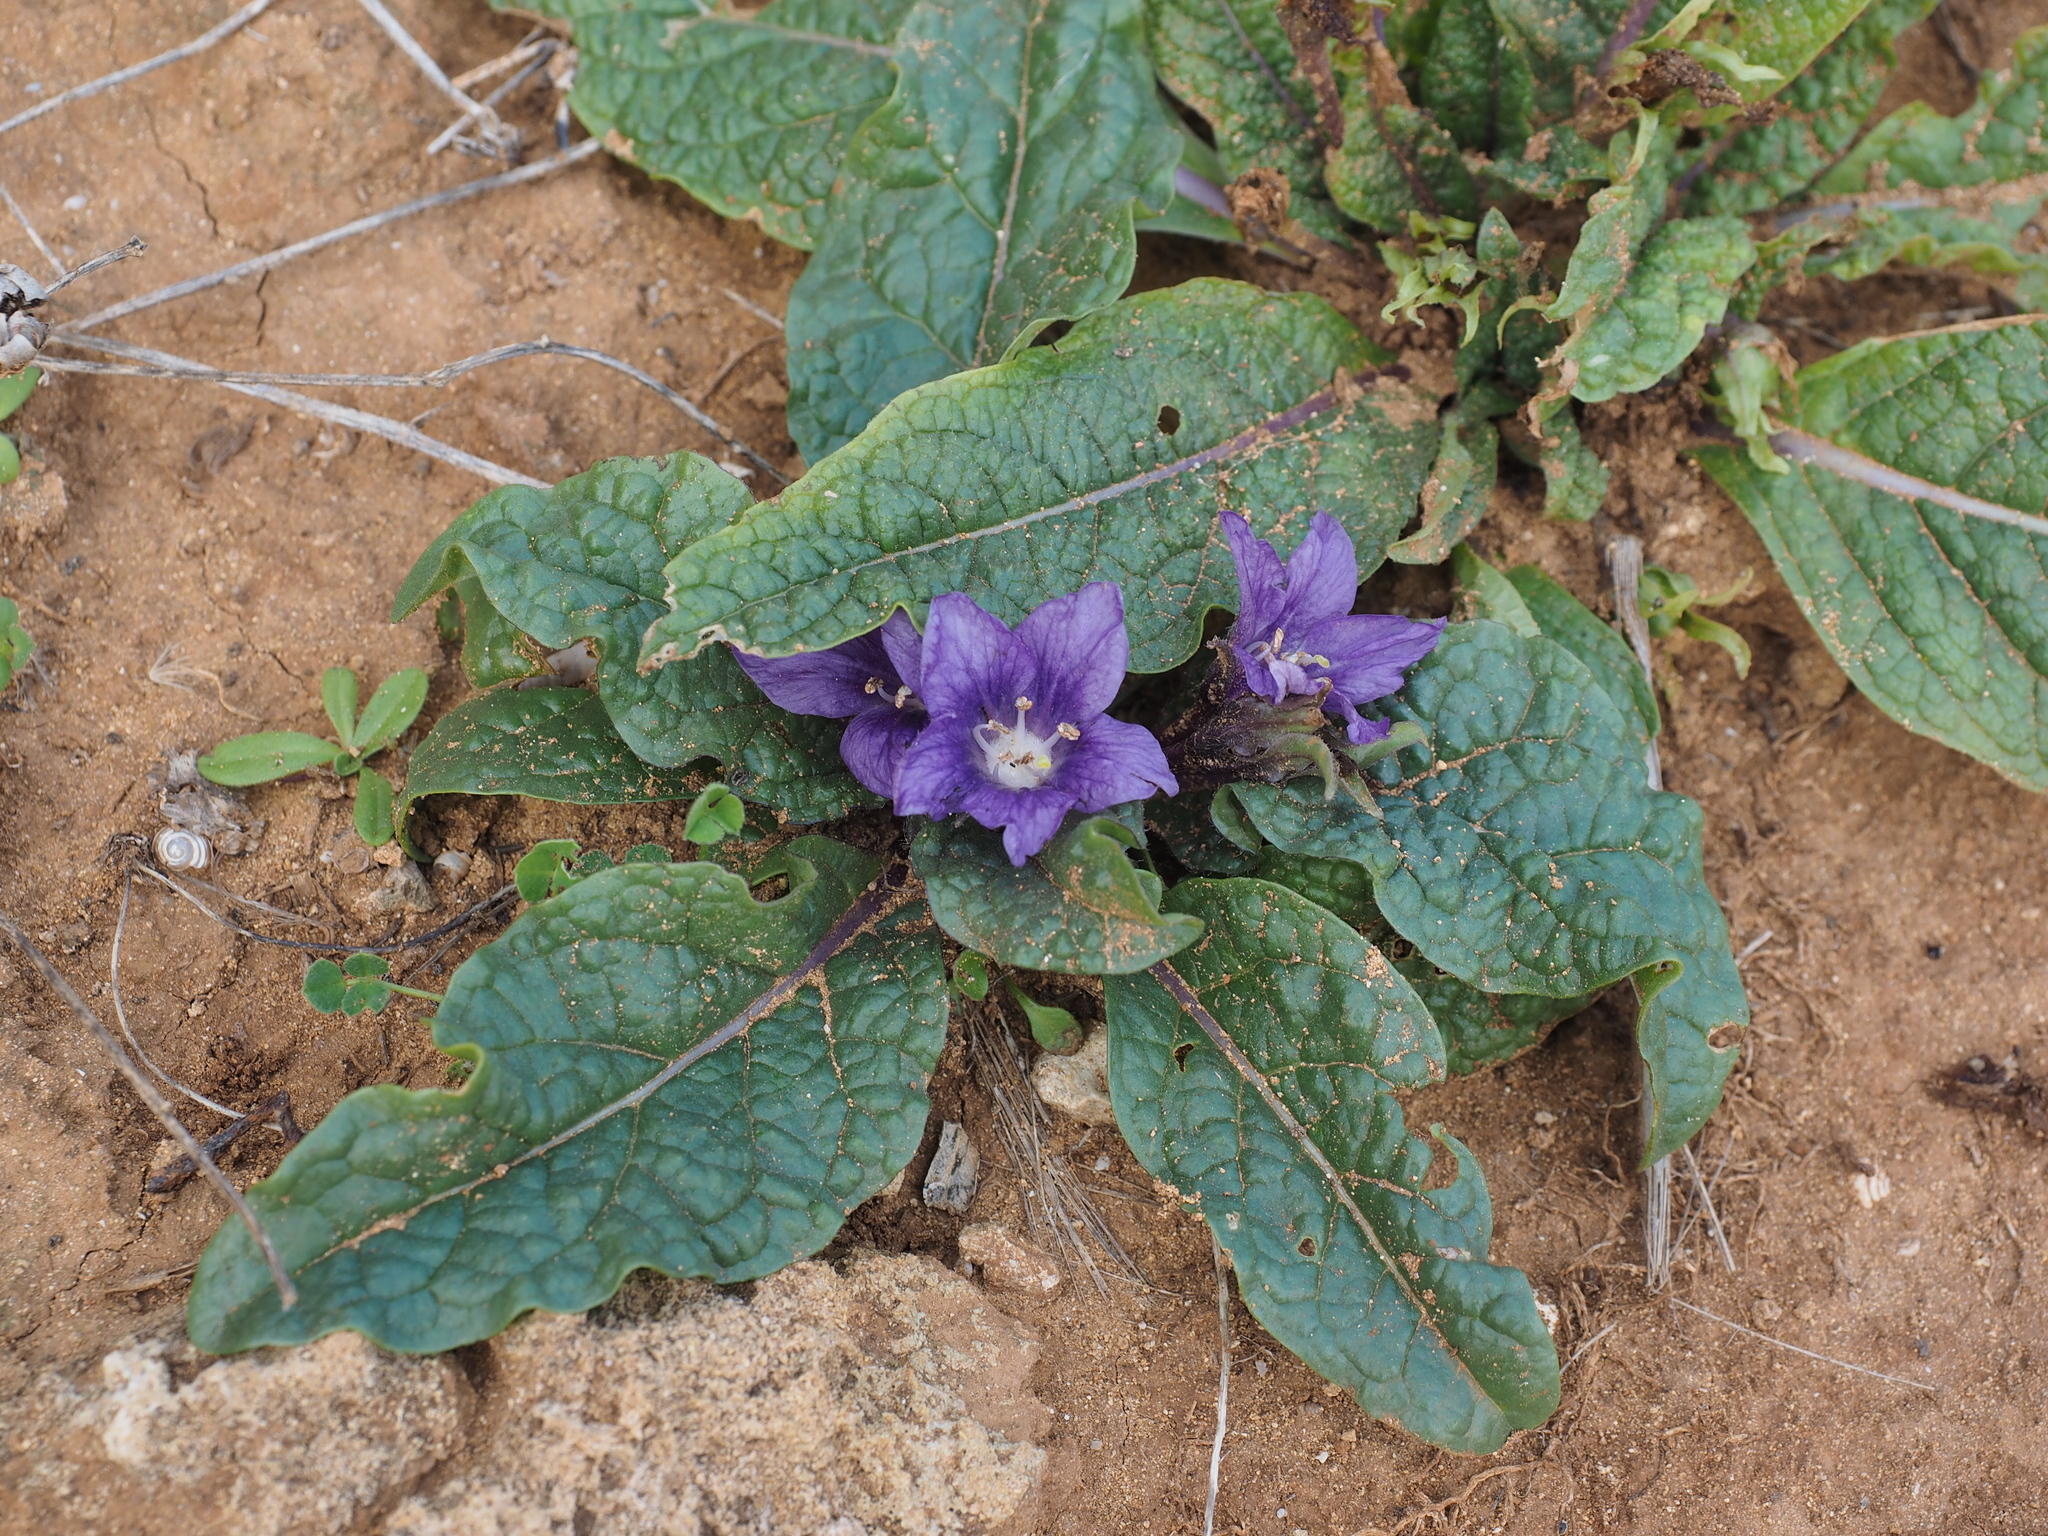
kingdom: Plantae
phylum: Tracheophyta
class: Magnoliopsida
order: Solanales
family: Solanaceae
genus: Mandragora
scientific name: Mandragora officinarum
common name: Mandrake
